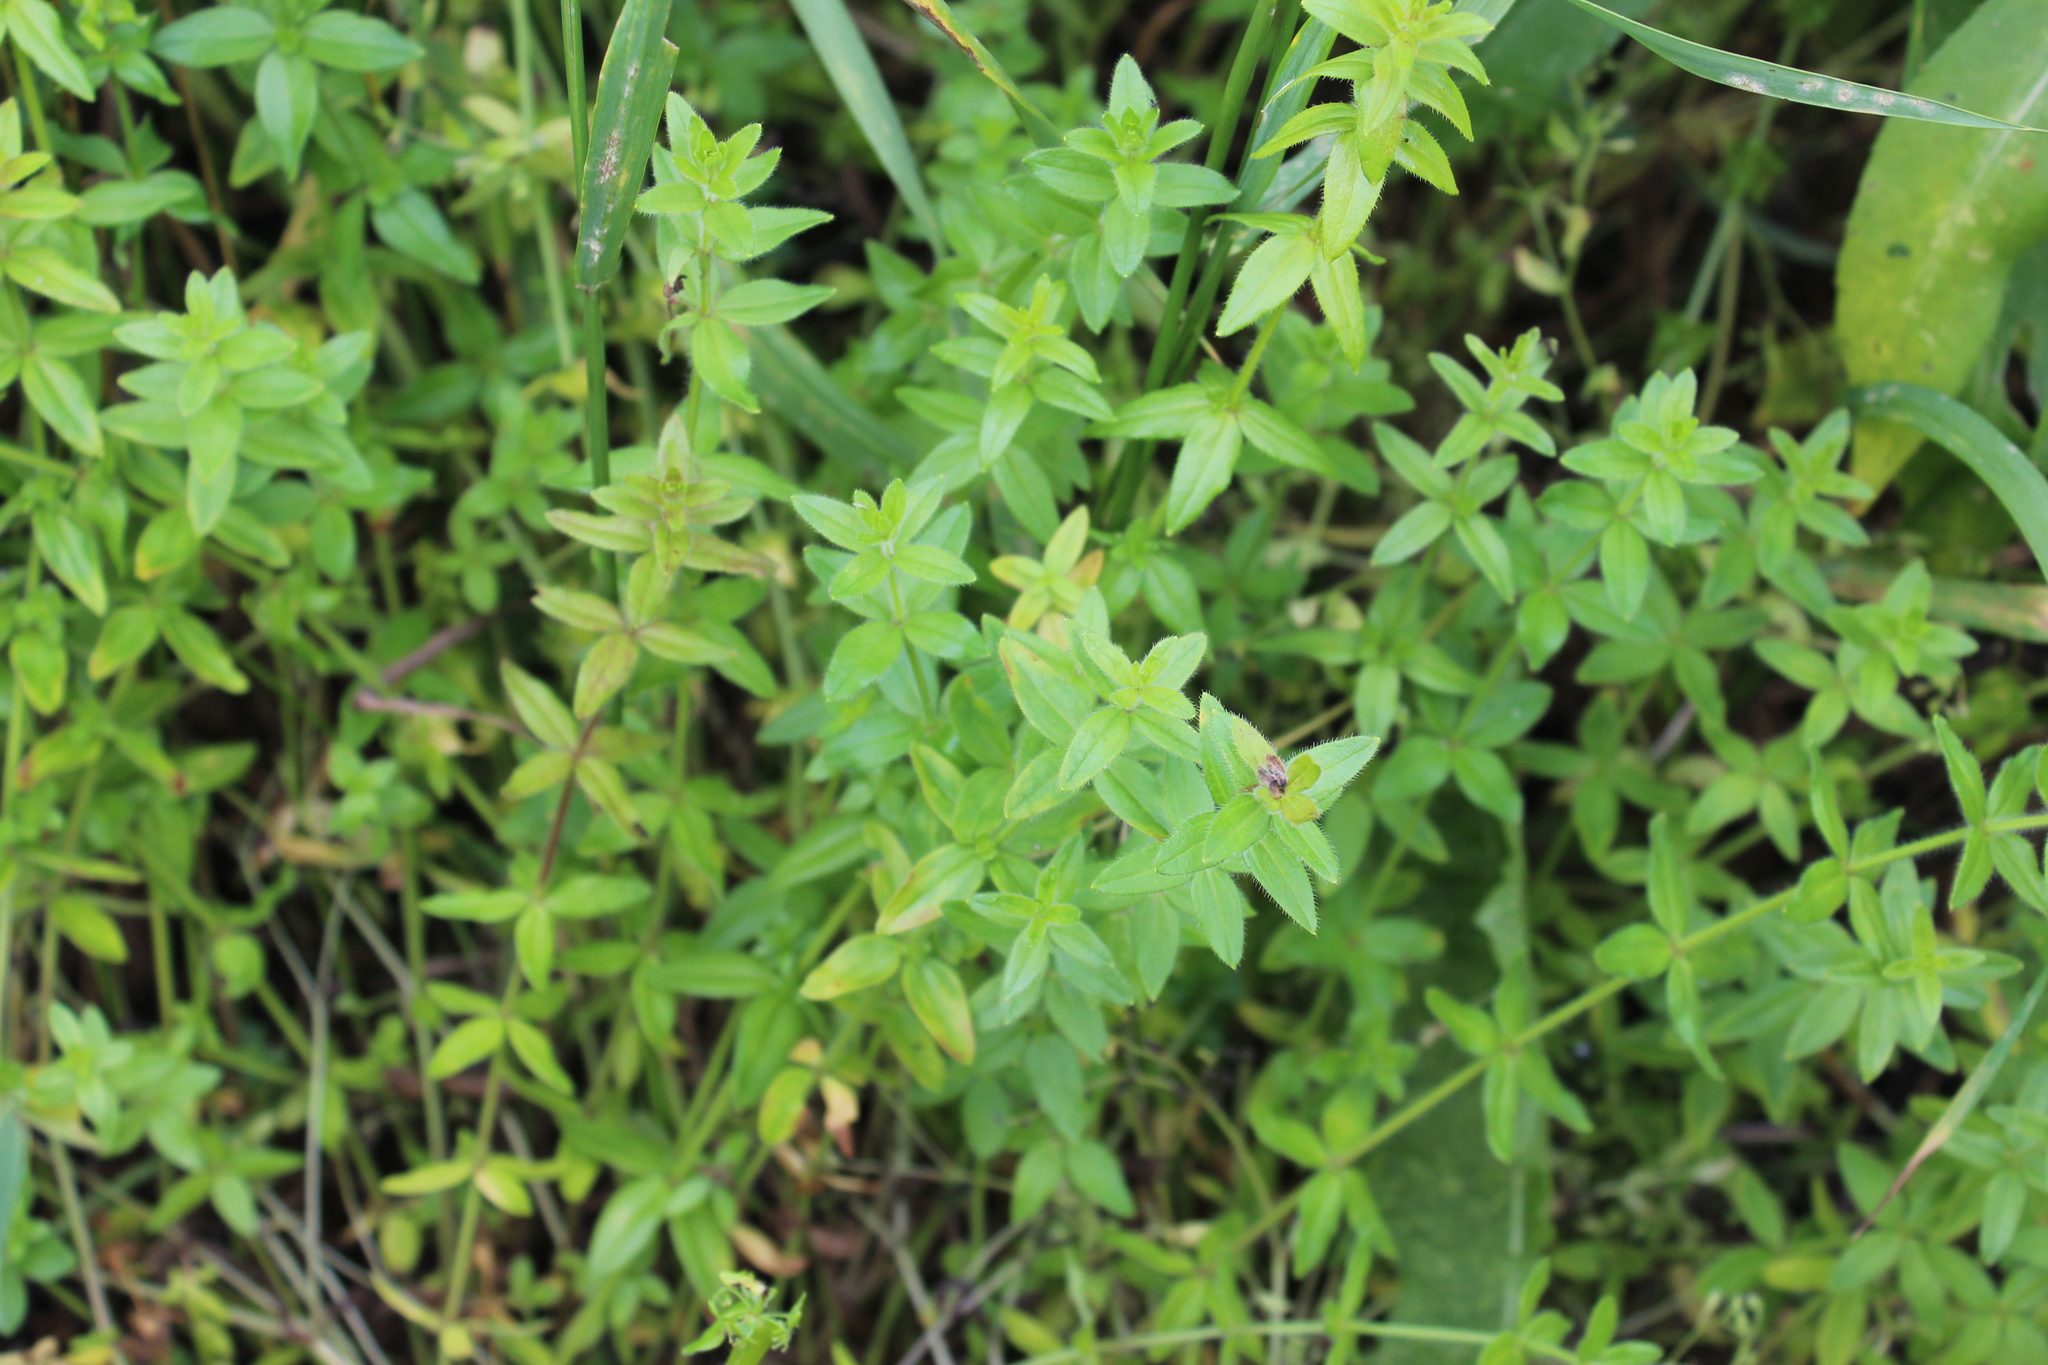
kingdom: Plantae
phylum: Tracheophyta
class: Magnoliopsida
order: Gentianales
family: Rubiaceae
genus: Cruciata
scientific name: Cruciata laevipes
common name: Crosswort
